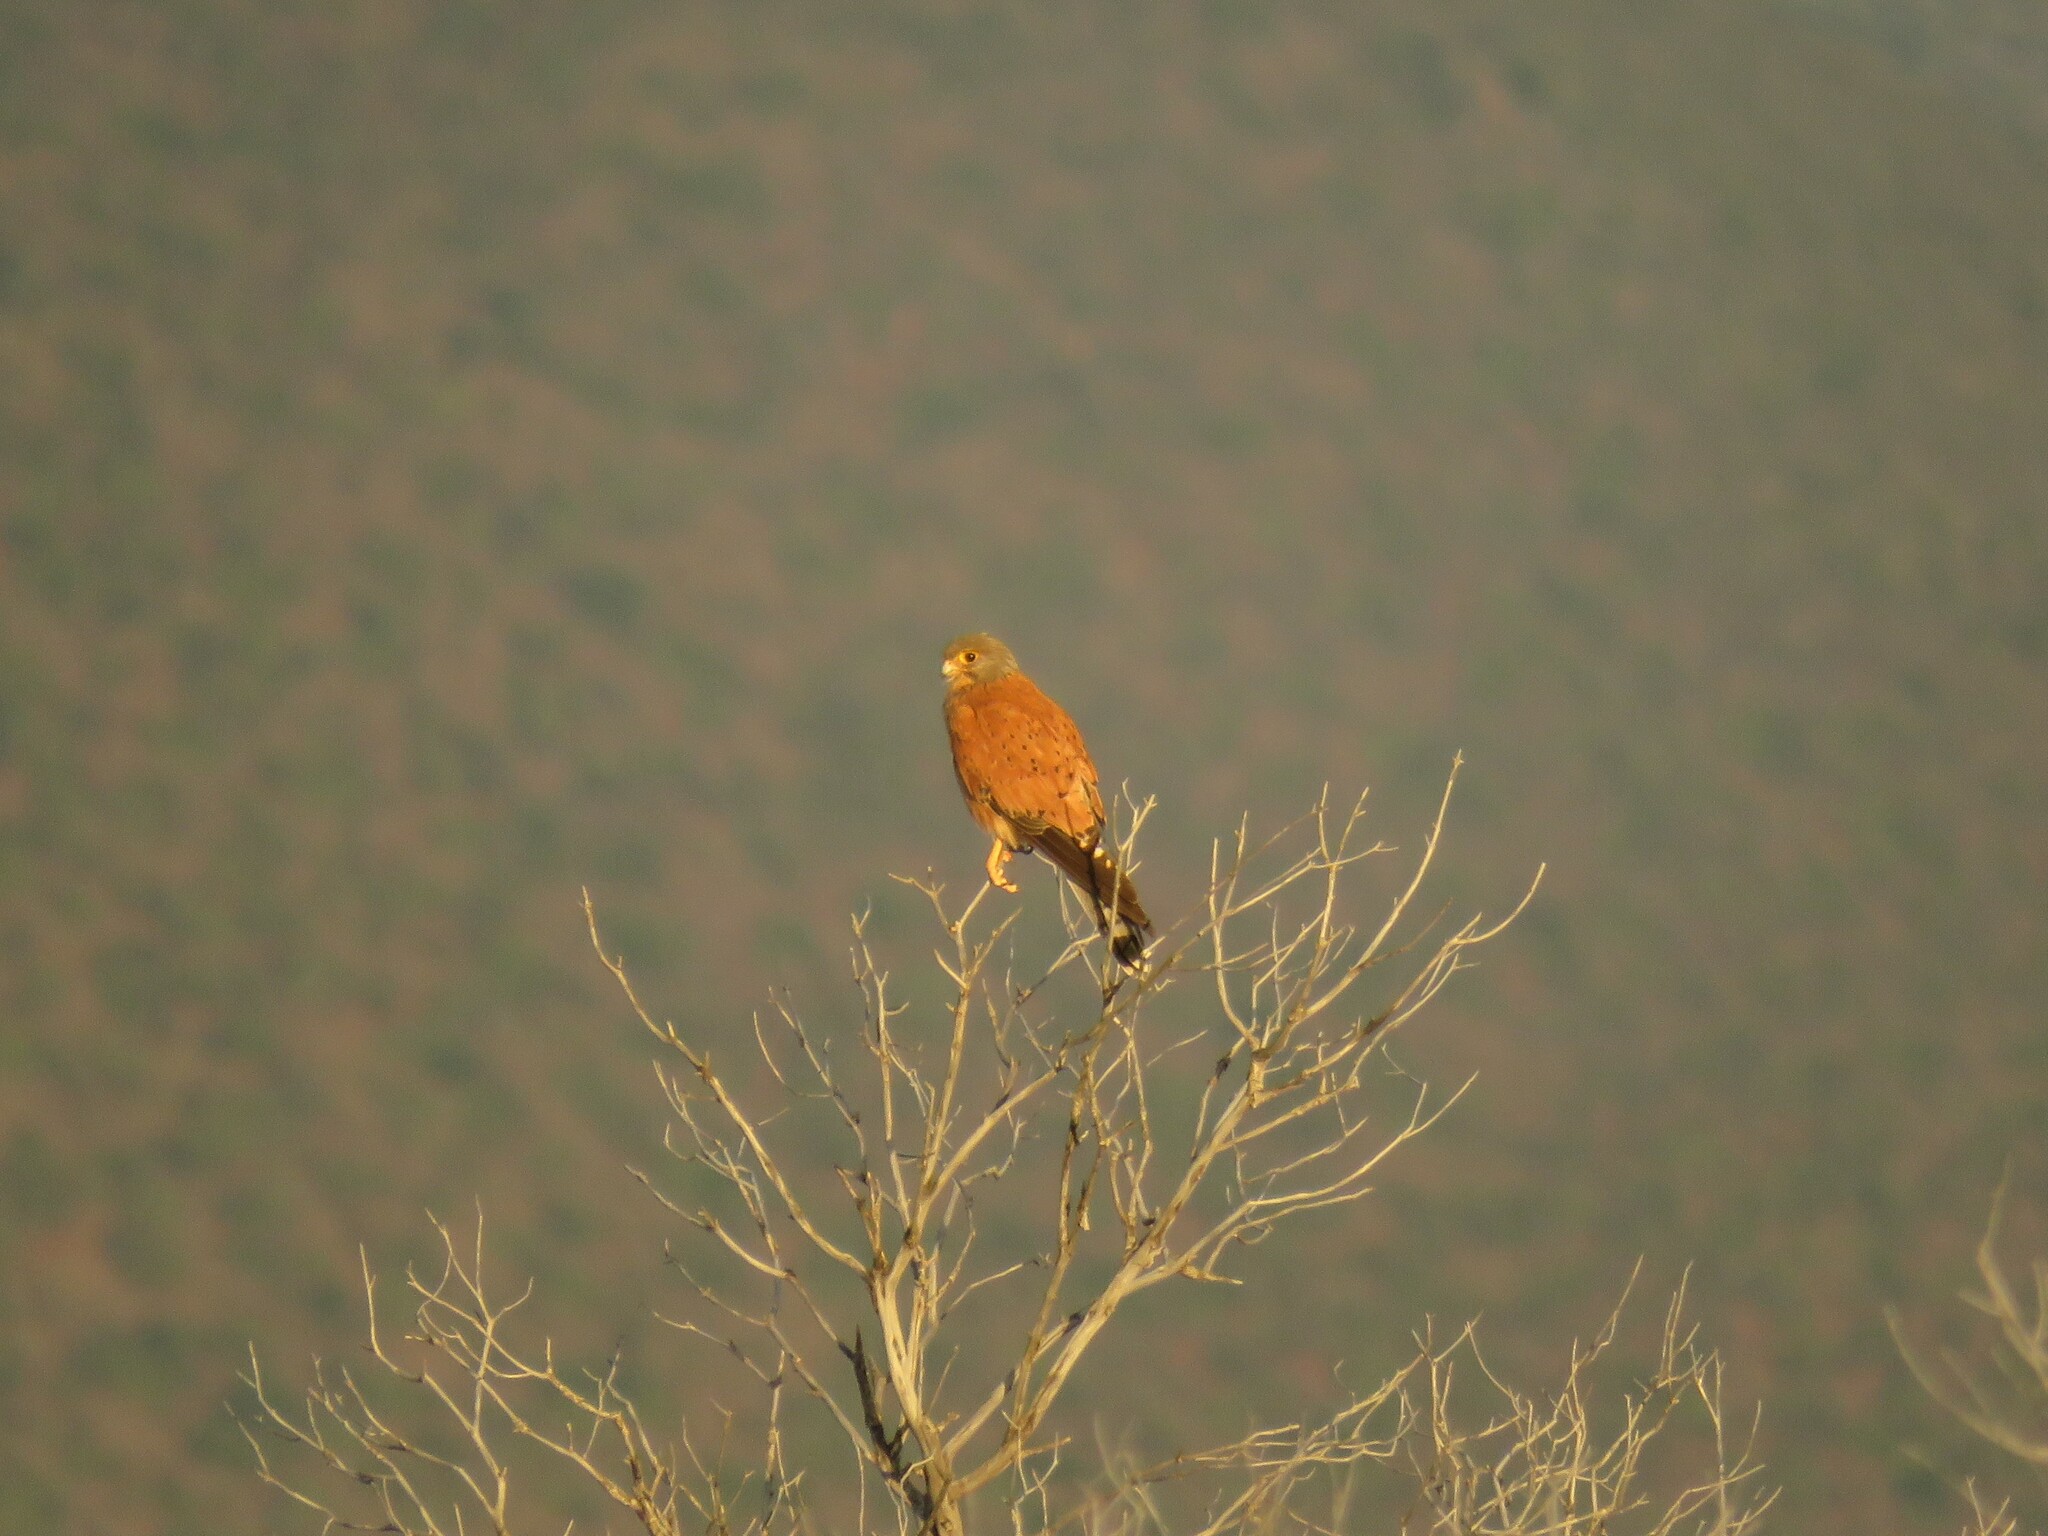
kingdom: Animalia
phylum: Chordata
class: Aves
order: Falconiformes
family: Falconidae
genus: Falco
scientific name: Falco rupicolus
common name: Rock kestrel
